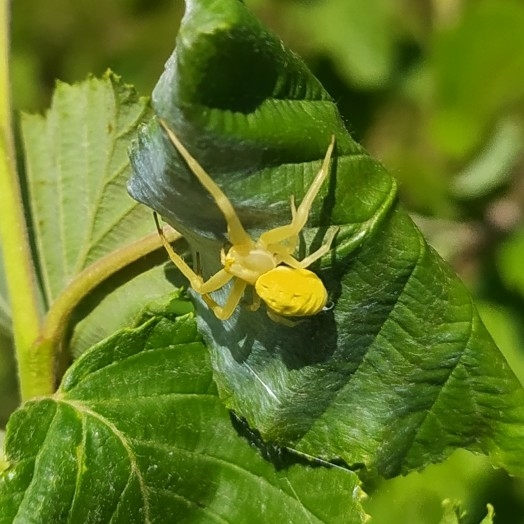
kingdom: Animalia
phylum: Arthropoda
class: Arachnida
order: Araneae
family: Thomisidae
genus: Misumena
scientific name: Misumena vatia
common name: Goldenrod crab spider
